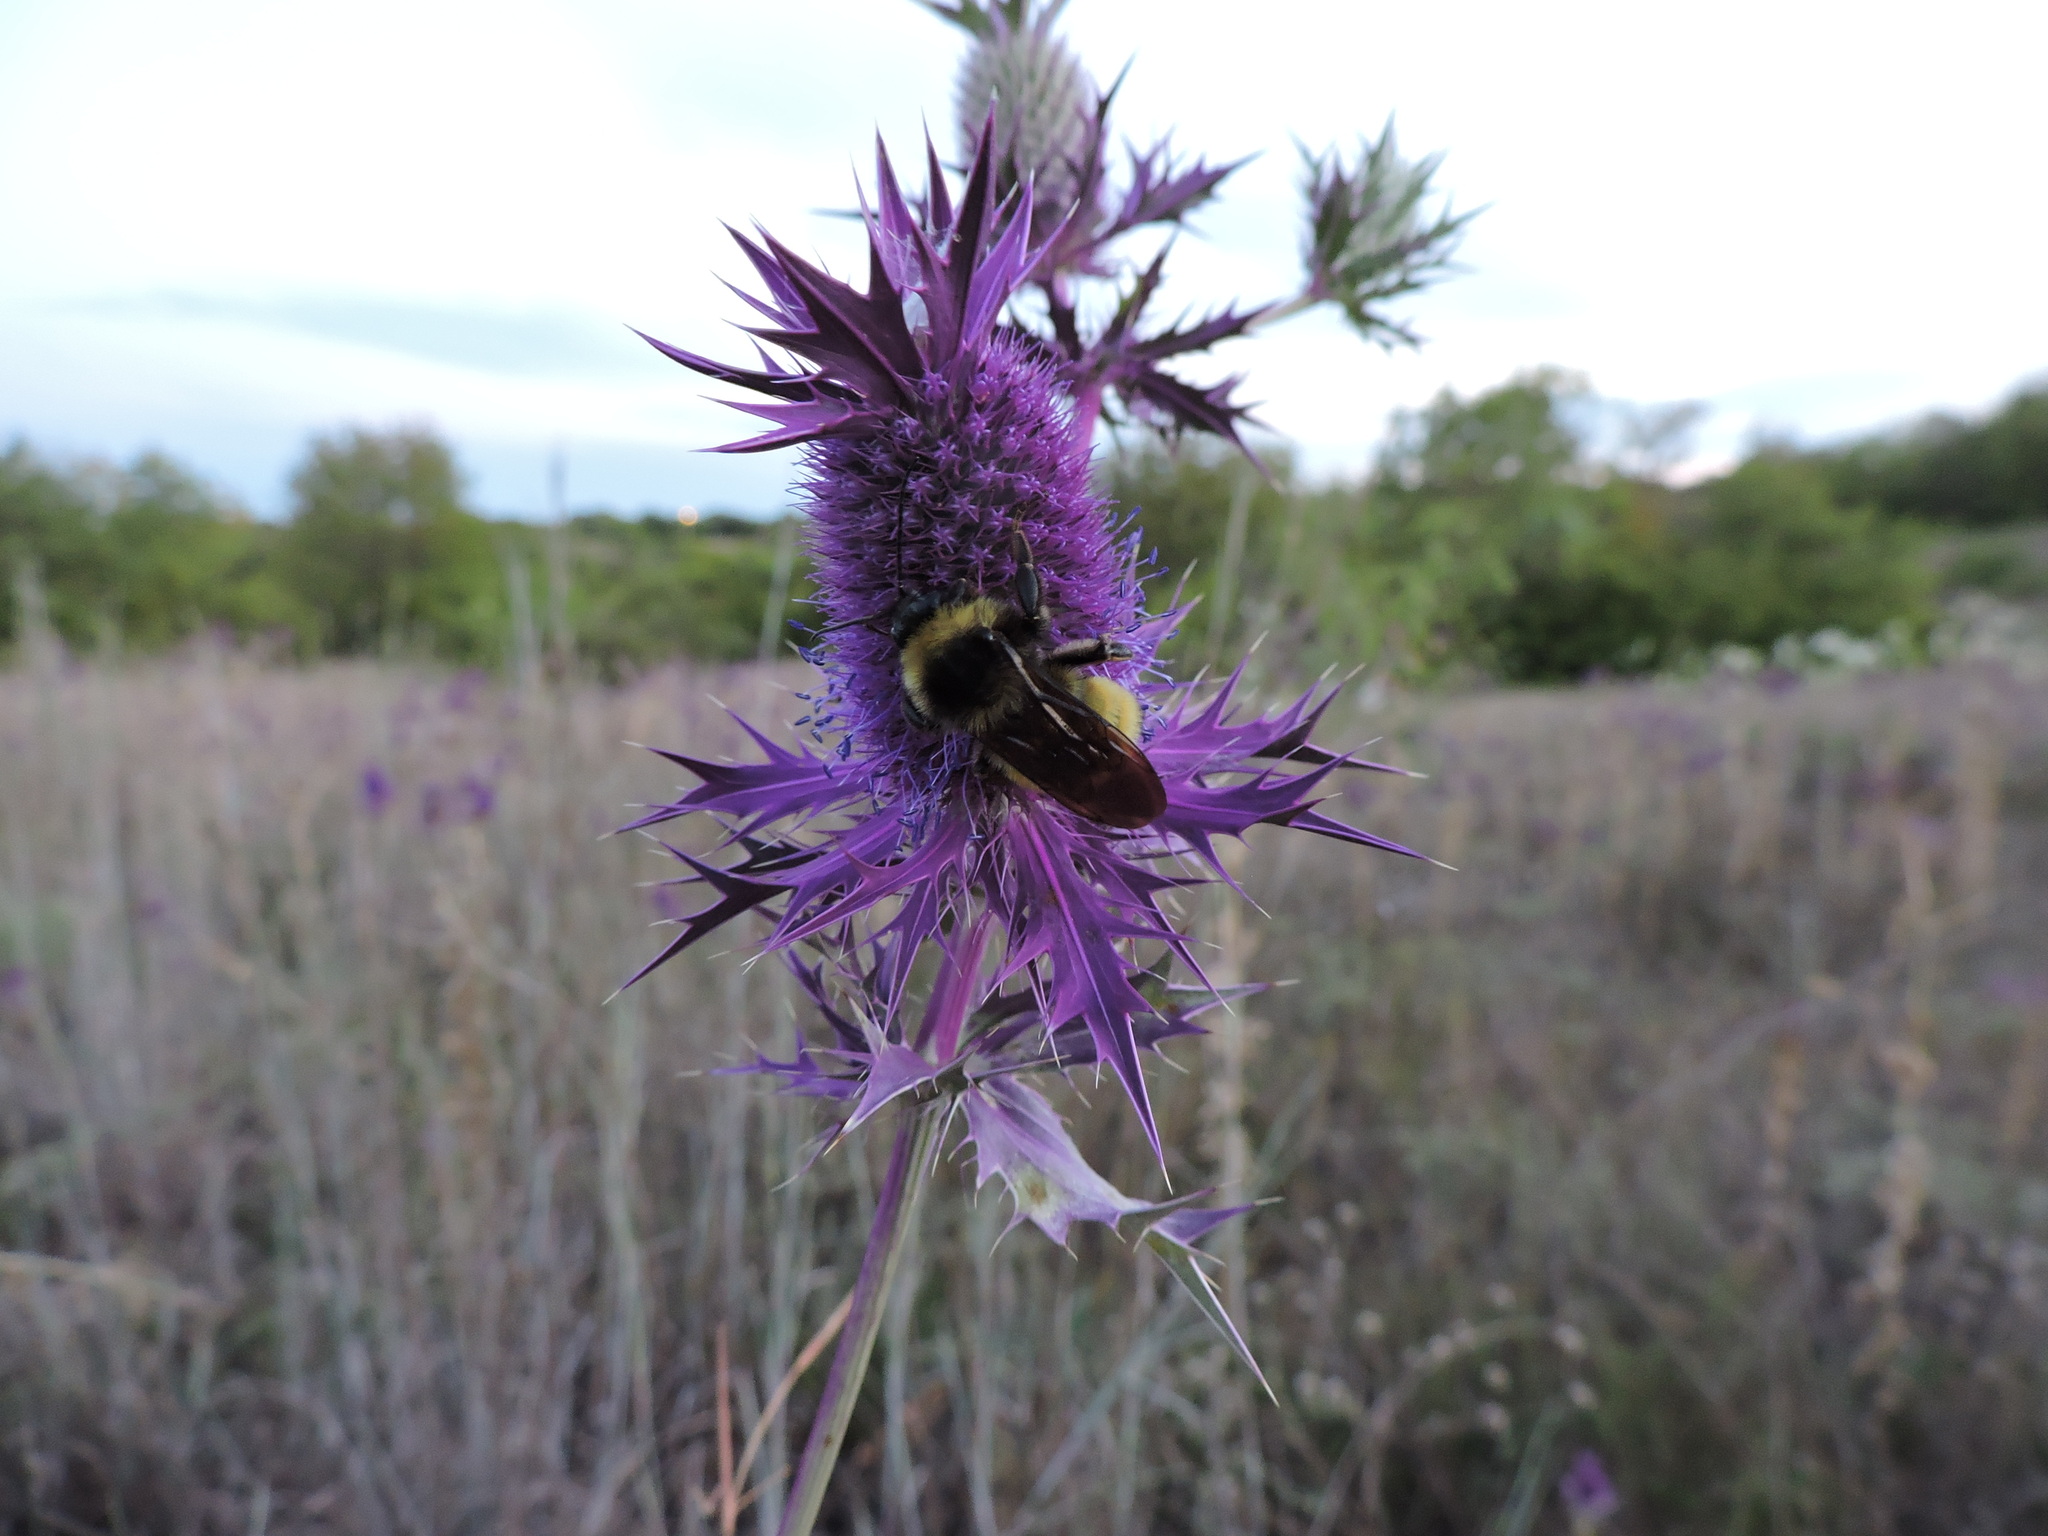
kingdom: Animalia
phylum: Arthropoda
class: Insecta
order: Hymenoptera
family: Apidae
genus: Bombus
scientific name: Bombus pensylvanicus
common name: Bumble bee
